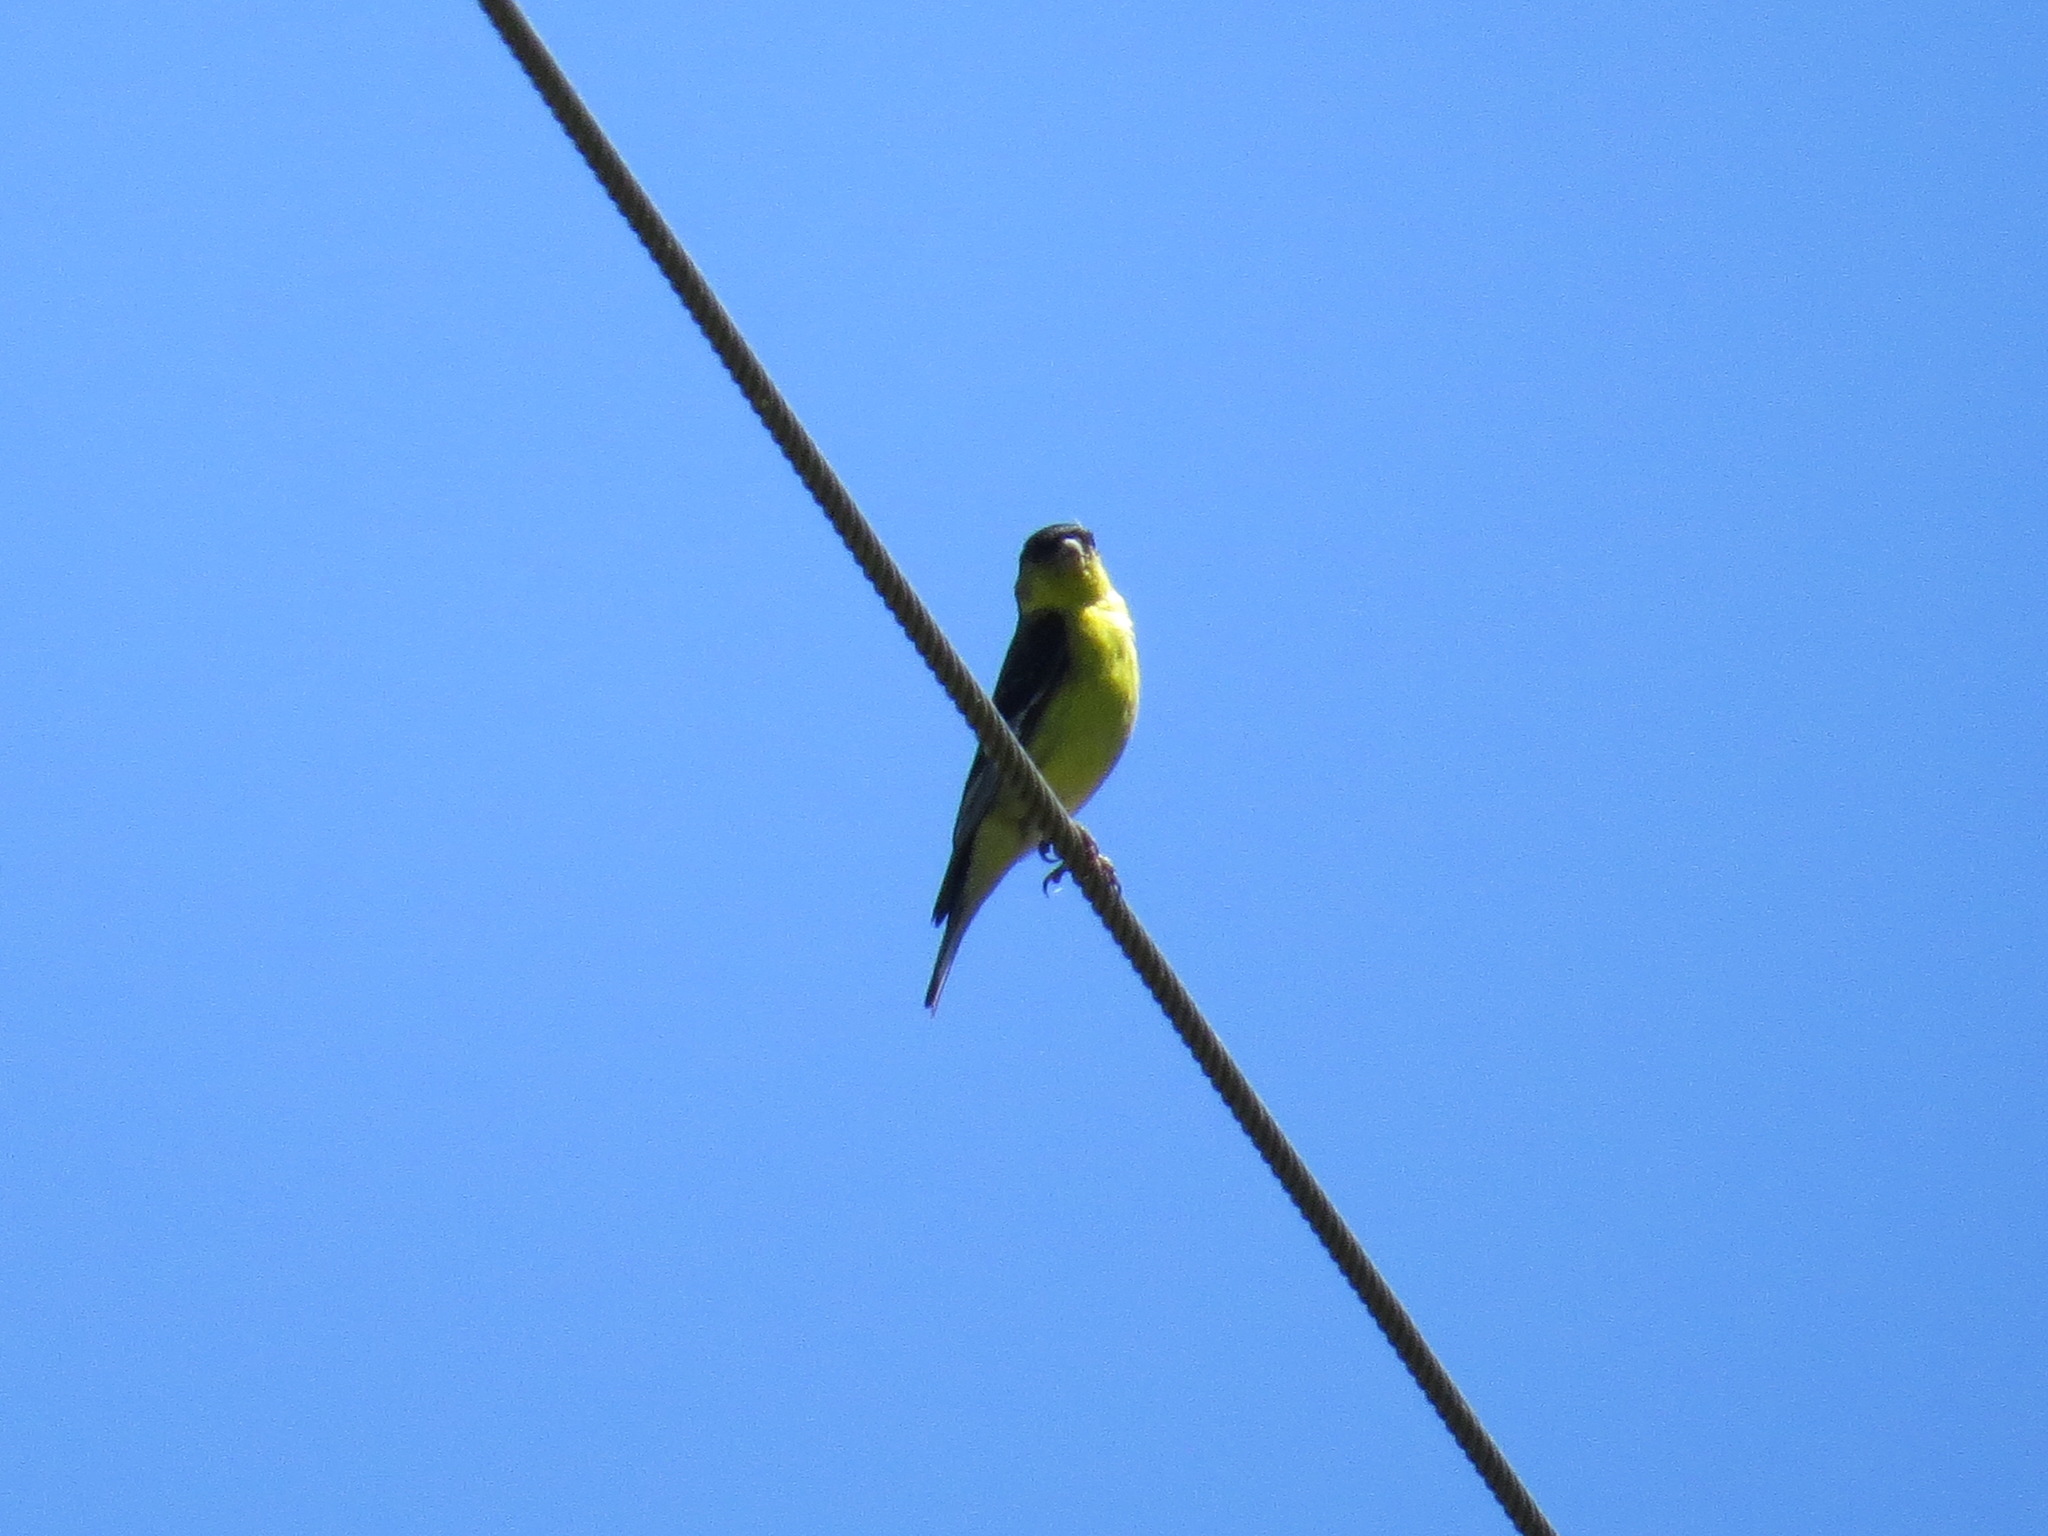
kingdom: Animalia
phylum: Chordata
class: Aves
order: Passeriformes
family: Fringillidae
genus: Spinus
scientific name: Spinus psaltria
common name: Lesser goldfinch
